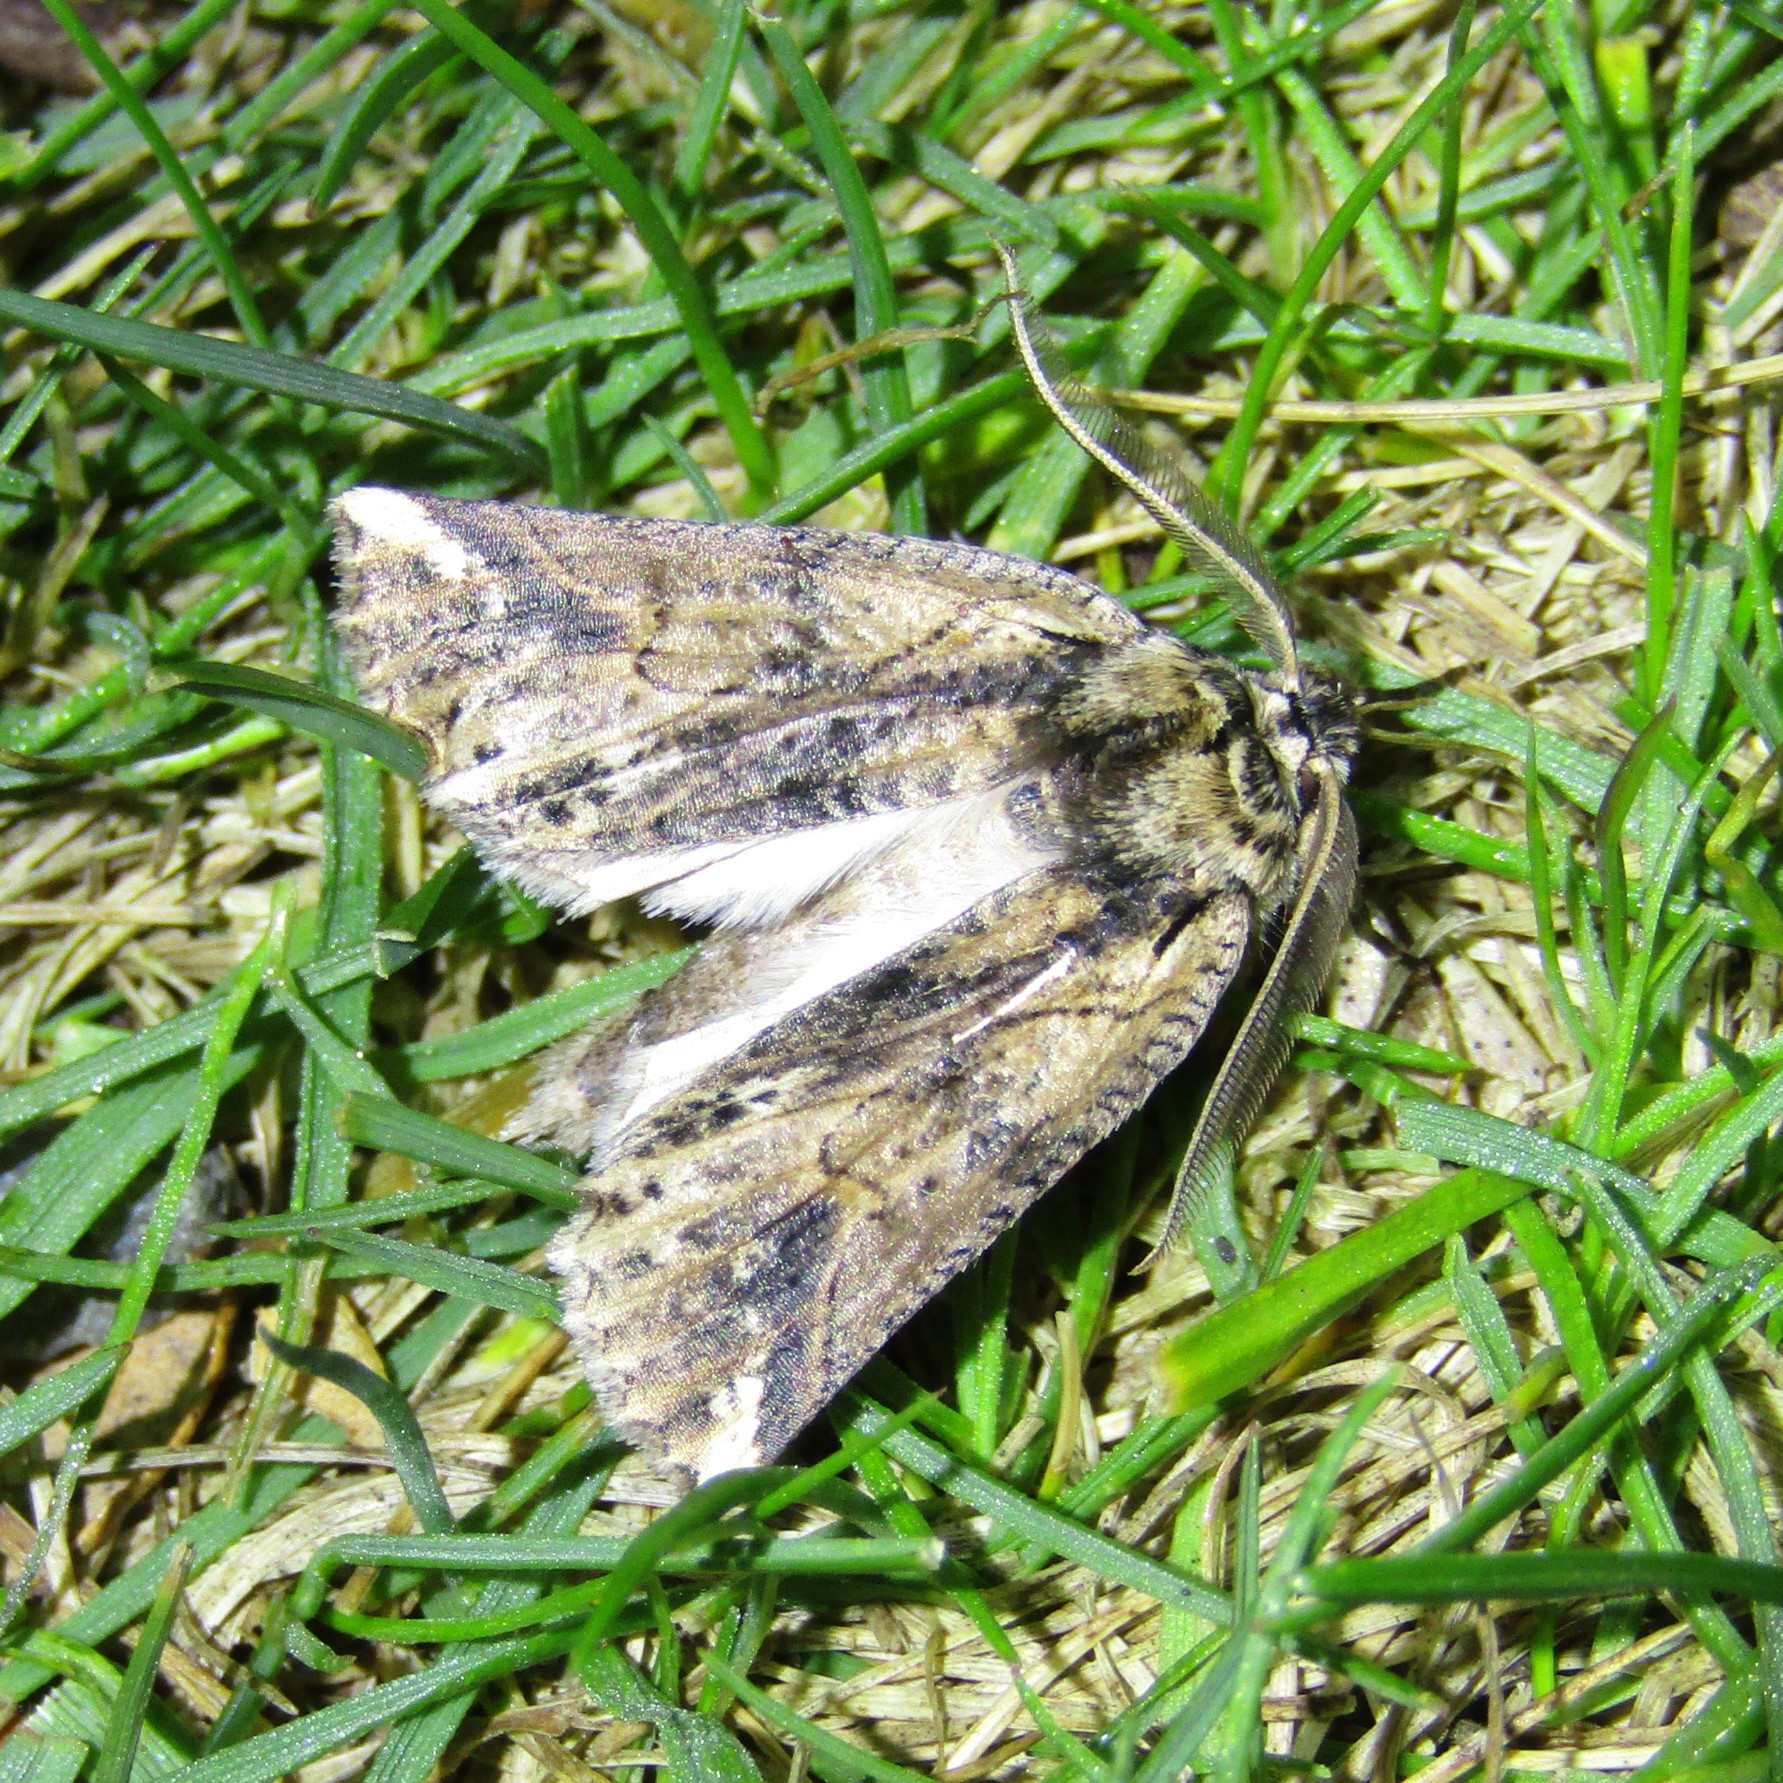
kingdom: Animalia
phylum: Arthropoda
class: Insecta
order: Lepidoptera
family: Geometridae
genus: Declana
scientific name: Declana
